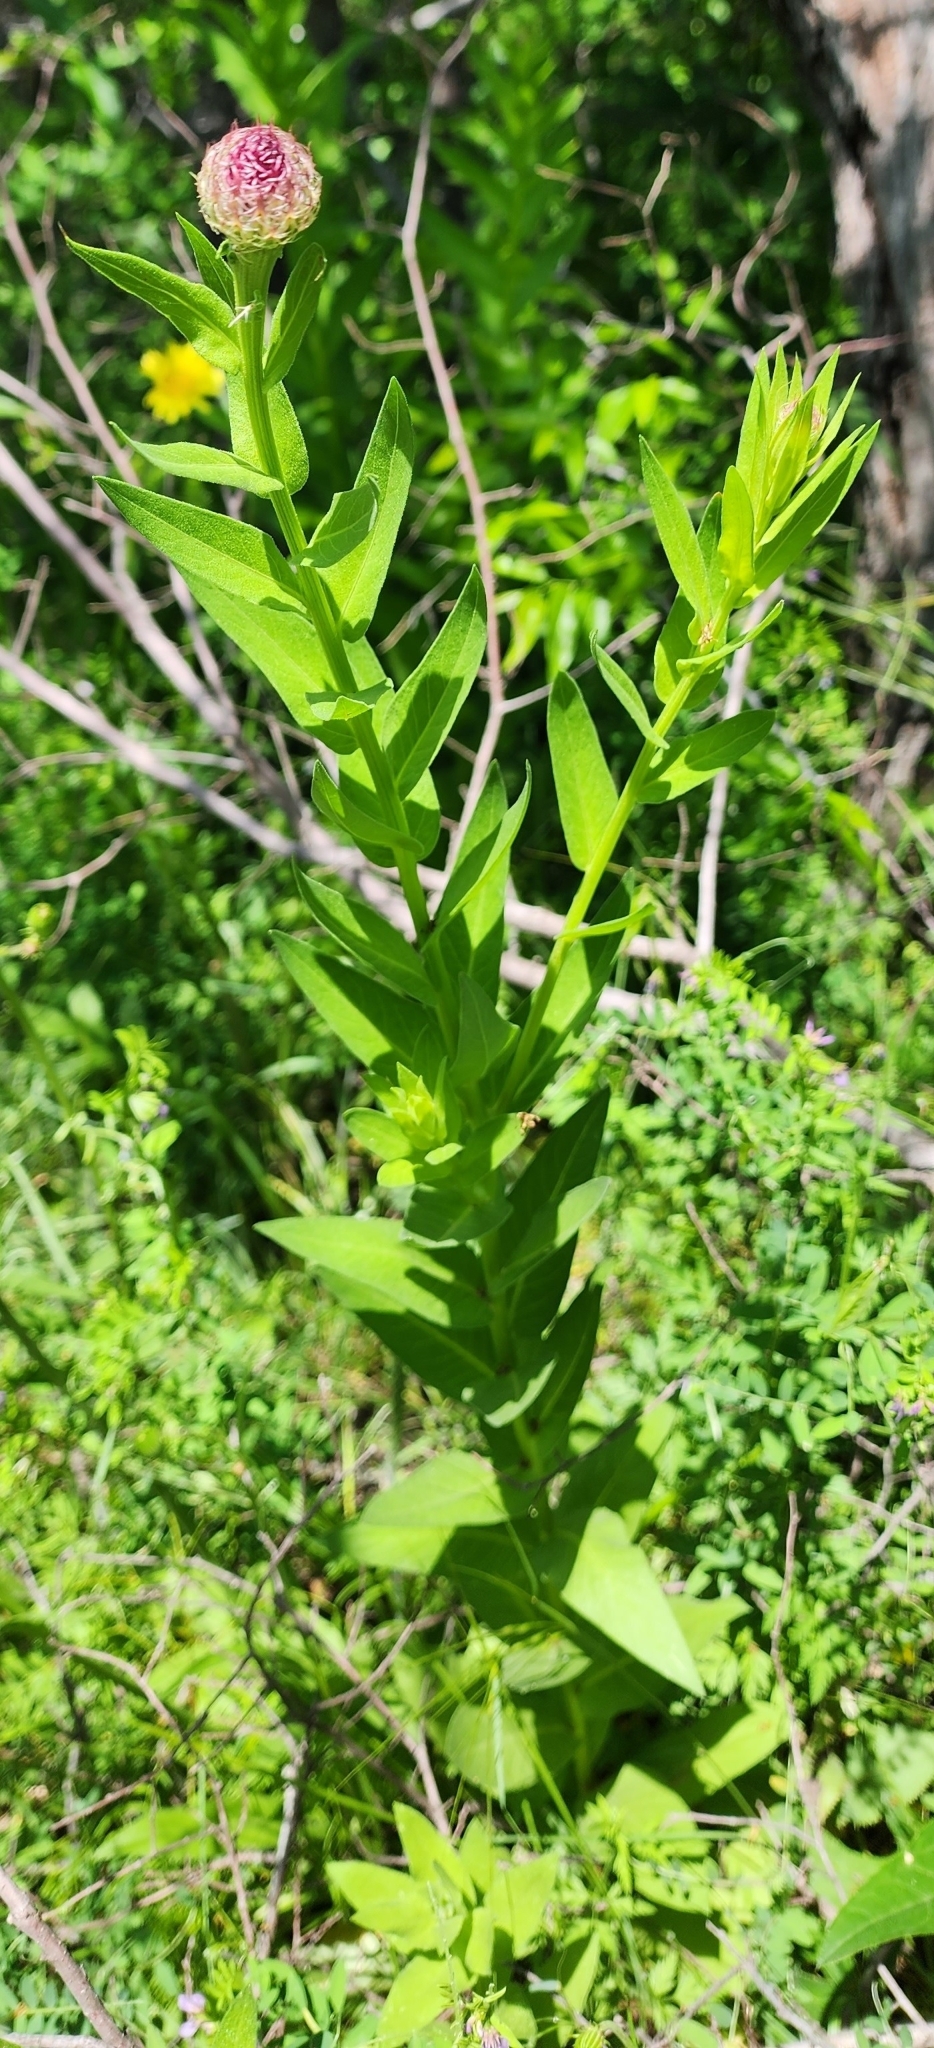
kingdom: Plantae
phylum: Tracheophyta
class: Magnoliopsida
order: Asterales
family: Asteraceae
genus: Plectocephalus
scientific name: Plectocephalus americanus
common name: American basket-flower
